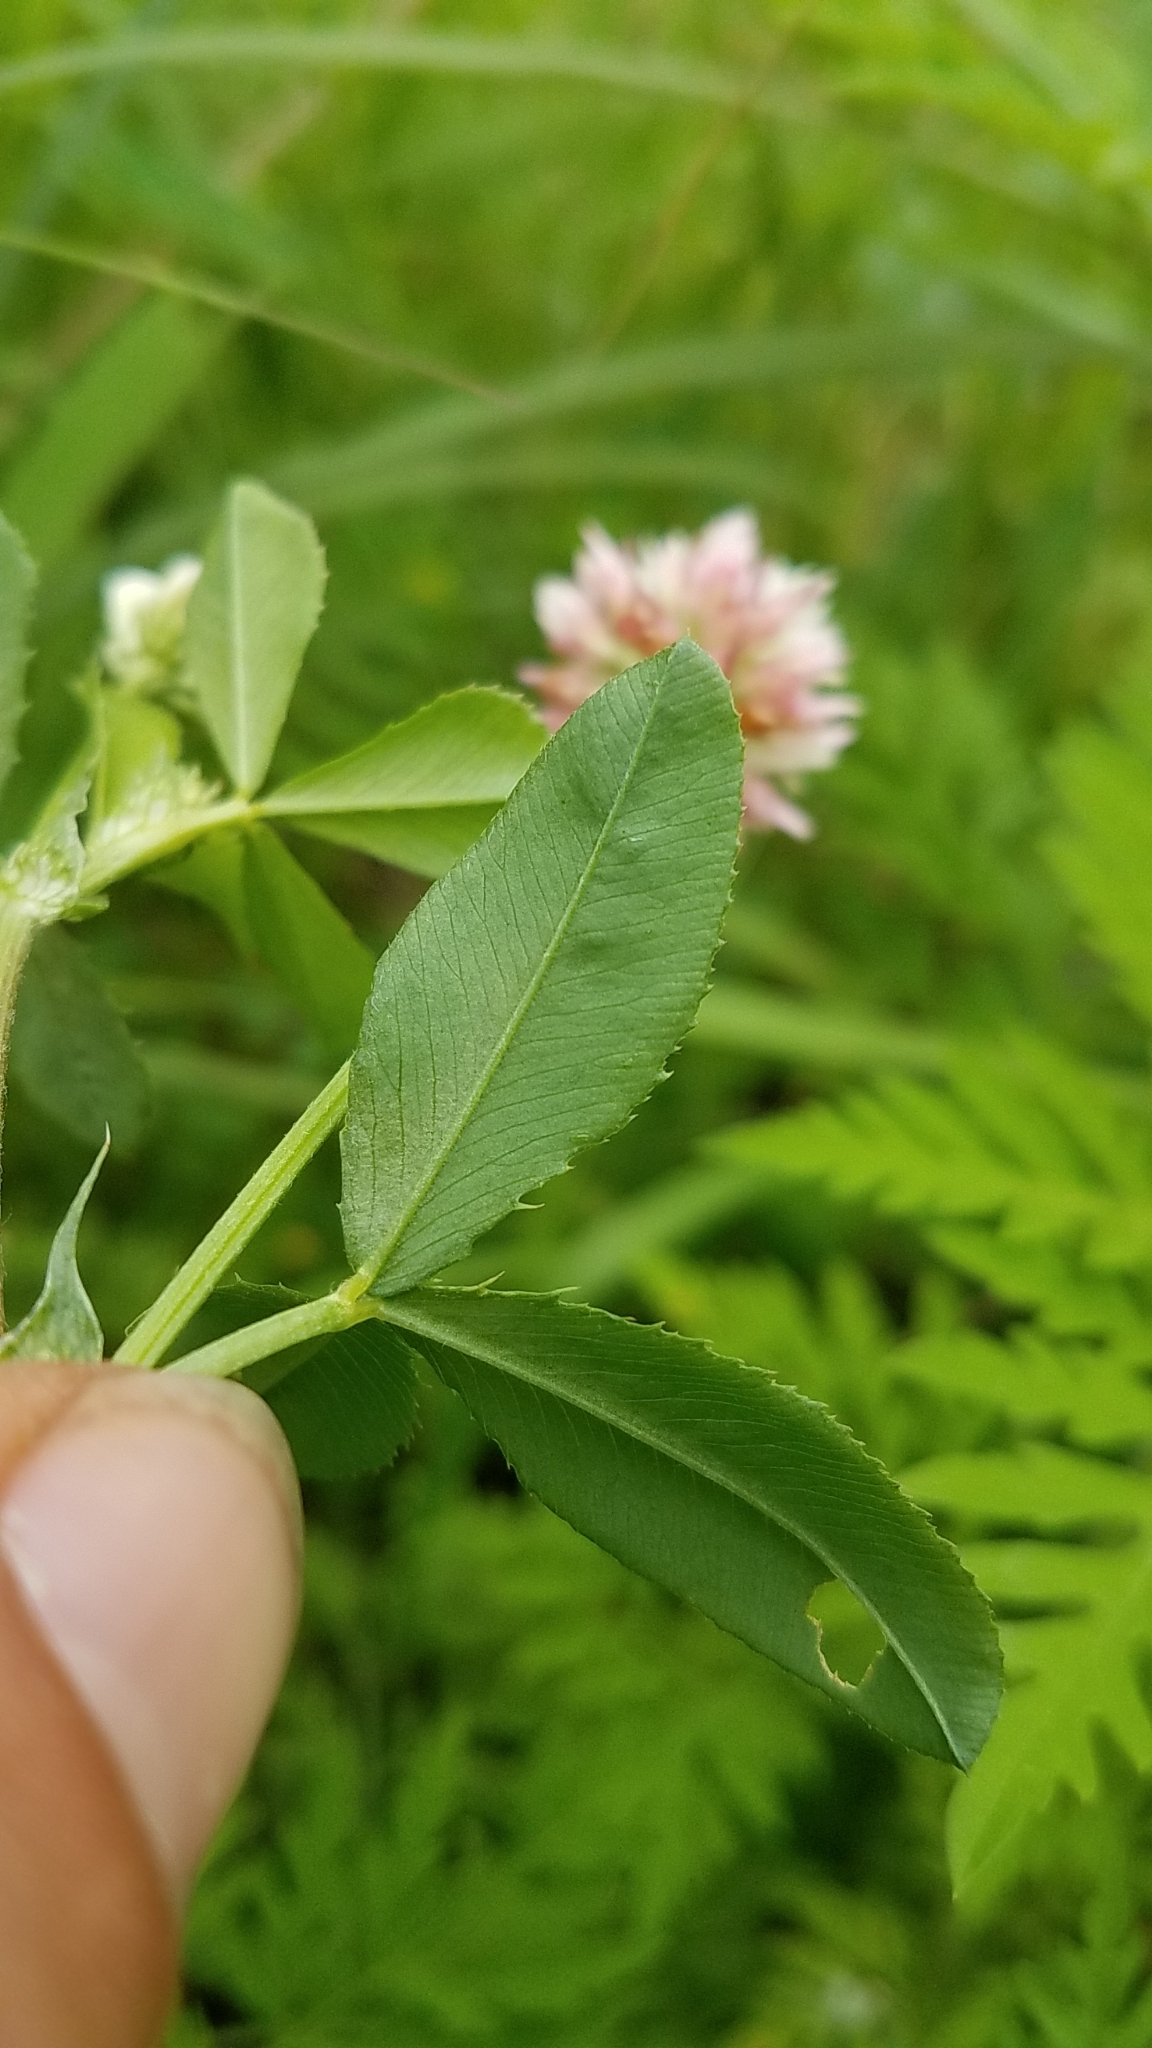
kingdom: Plantae
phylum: Tracheophyta
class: Magnoliopsida
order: Fabales
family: Fabaceae
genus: Trifolium
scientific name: Trifolium hybridum
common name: Alsike clover
